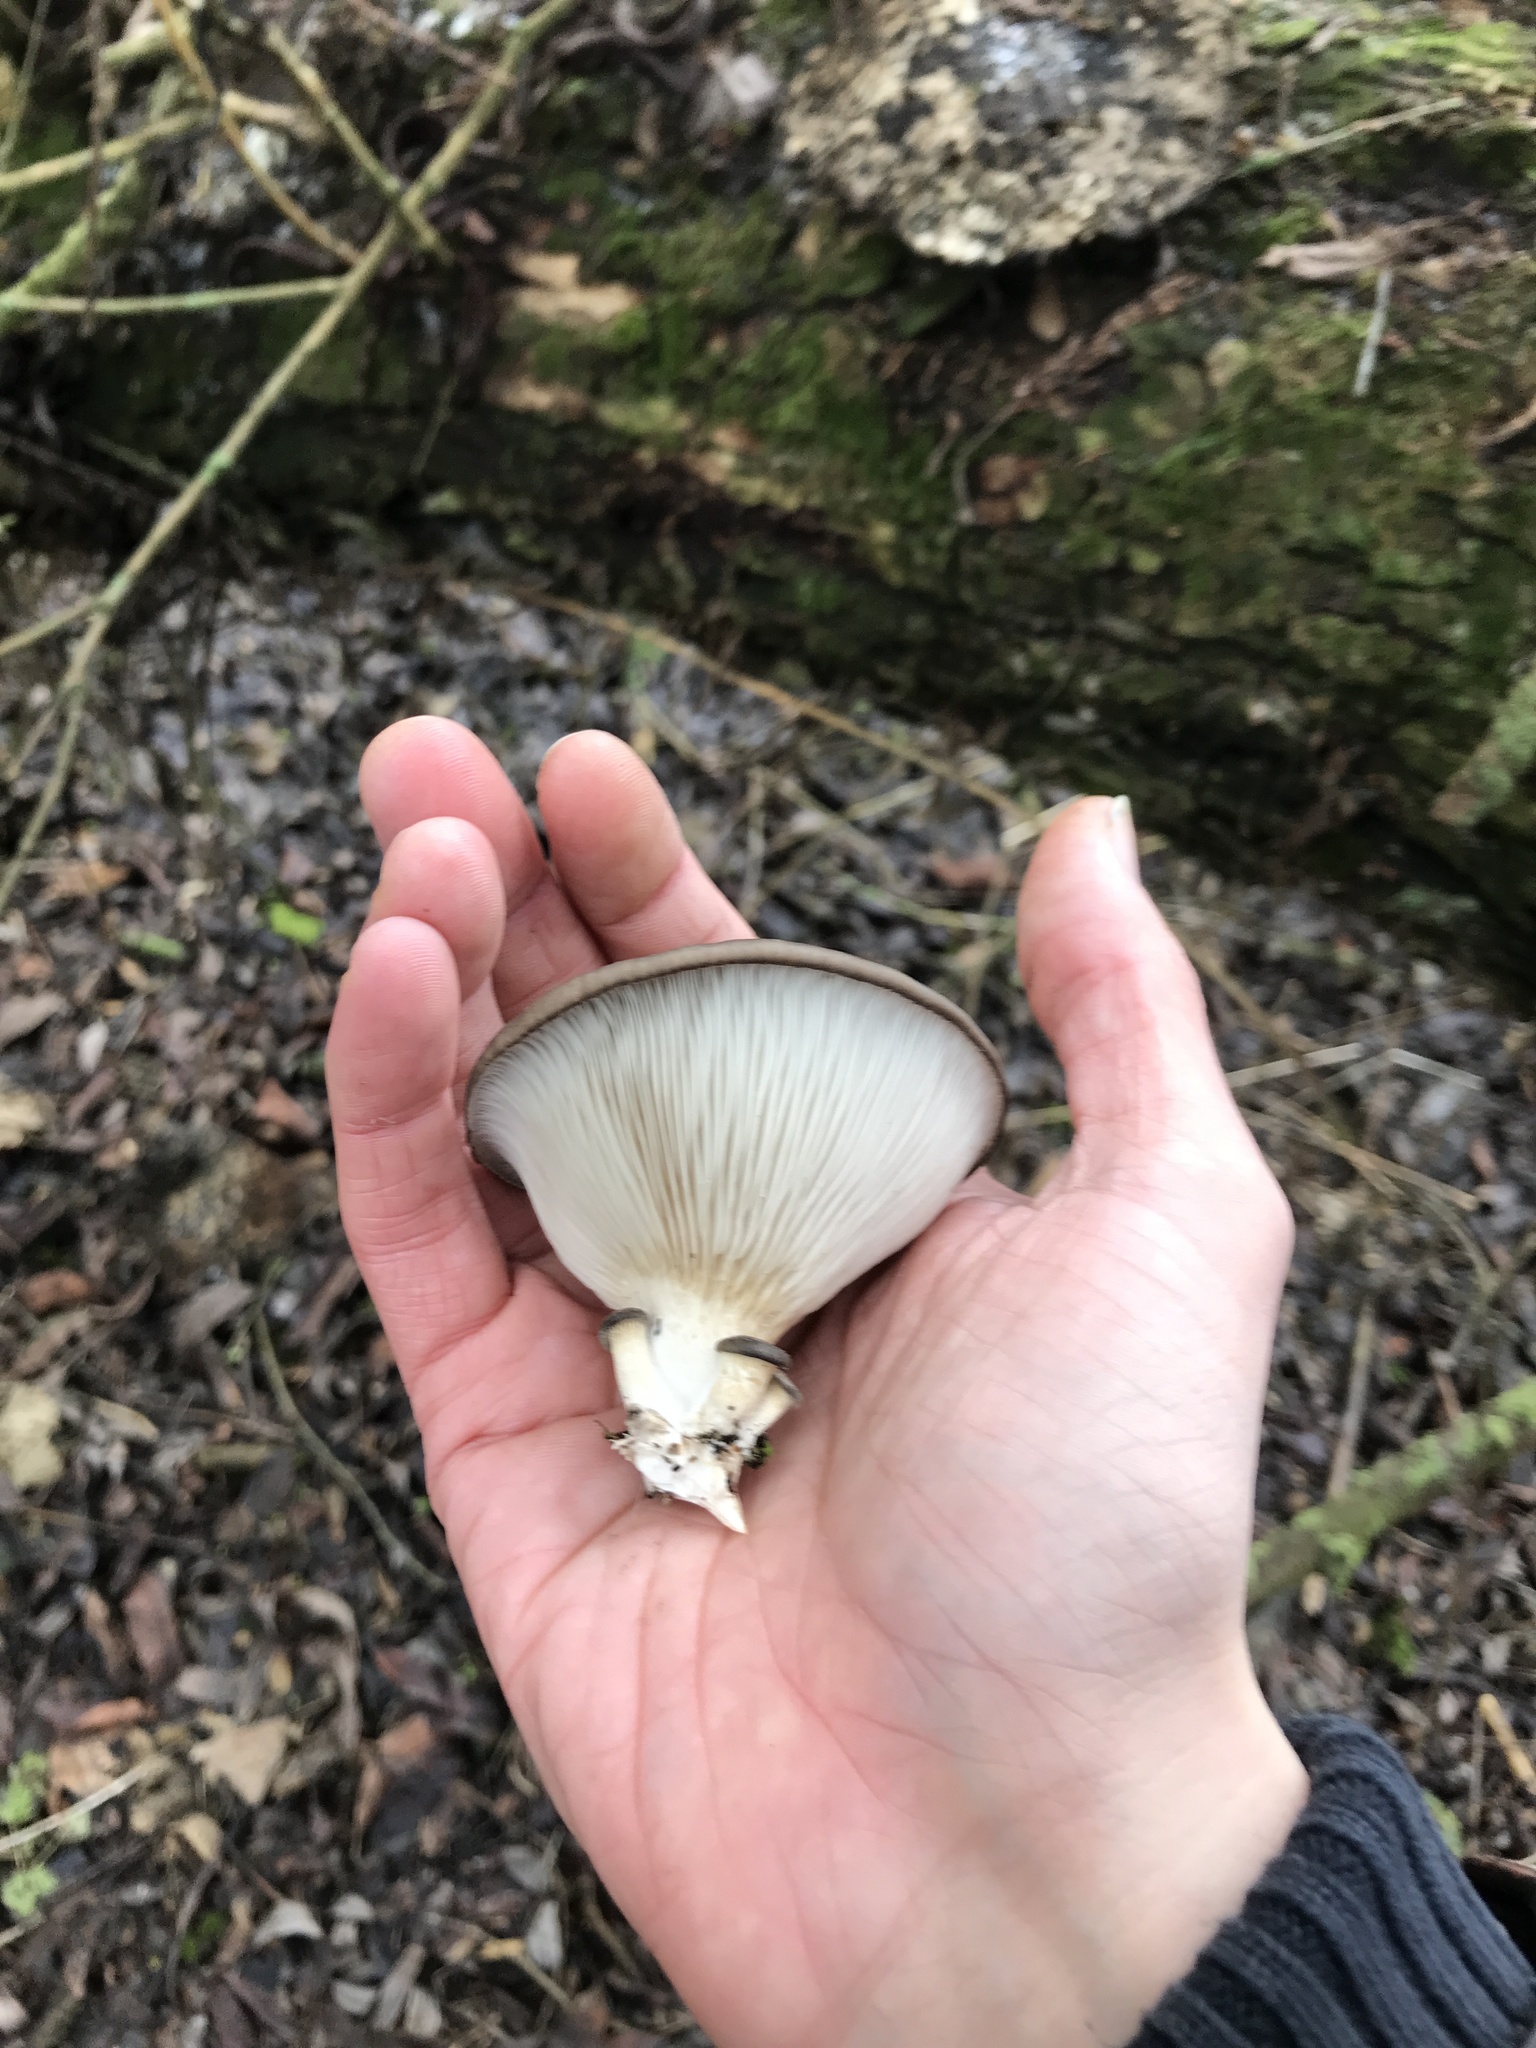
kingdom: Fungi
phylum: Basidiomycota
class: Agaricomycetes
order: Agaricales
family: Pleurotaceae
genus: Pleurotus
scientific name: Pleurotus ostreatus
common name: Oyster mushroom
